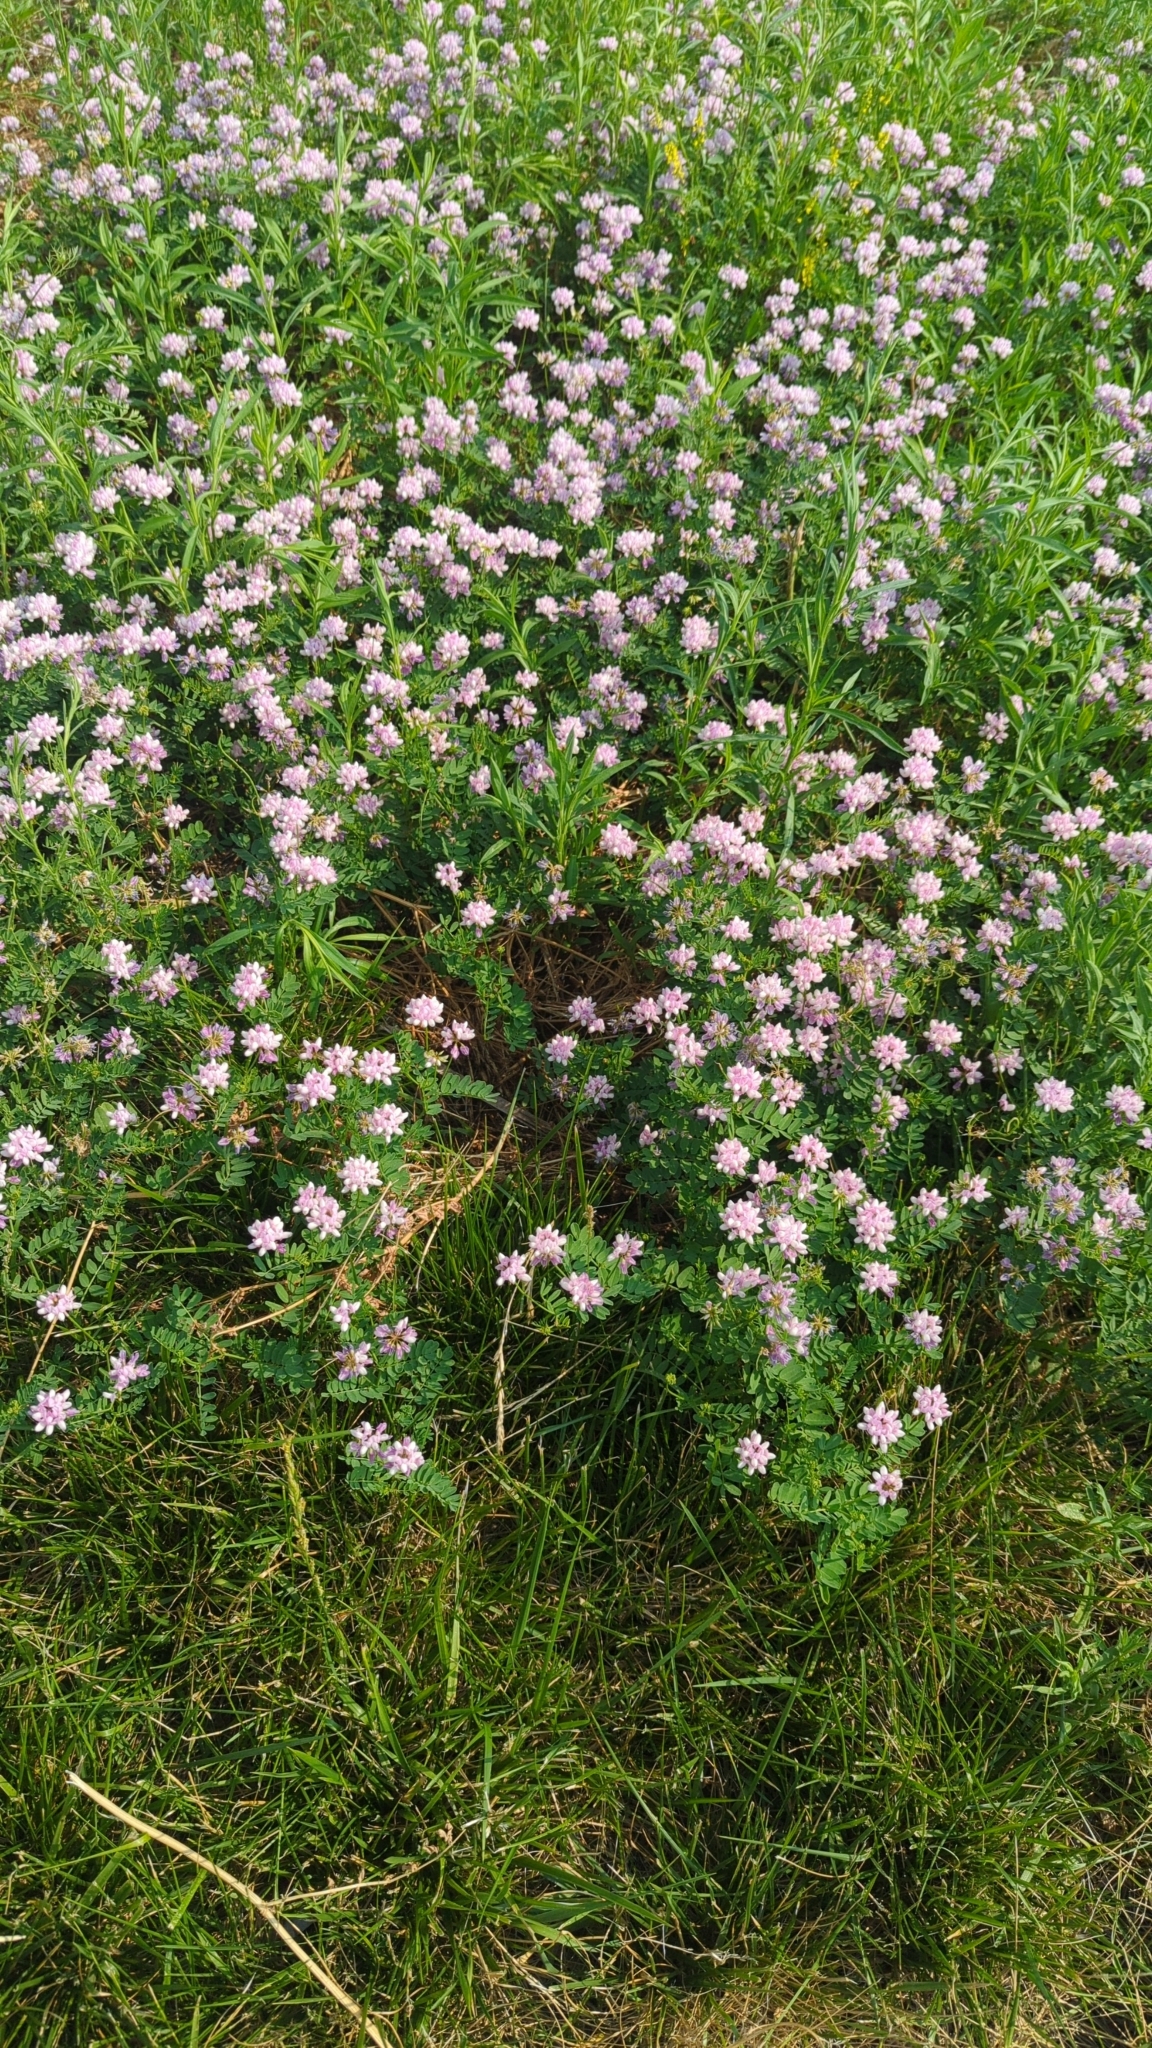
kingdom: Plantae
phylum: Tracheophyta
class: Magnoliopsida
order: Fabales
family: Fabaceae
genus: Coronilla
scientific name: Coronilla varia
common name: Crownvetch
